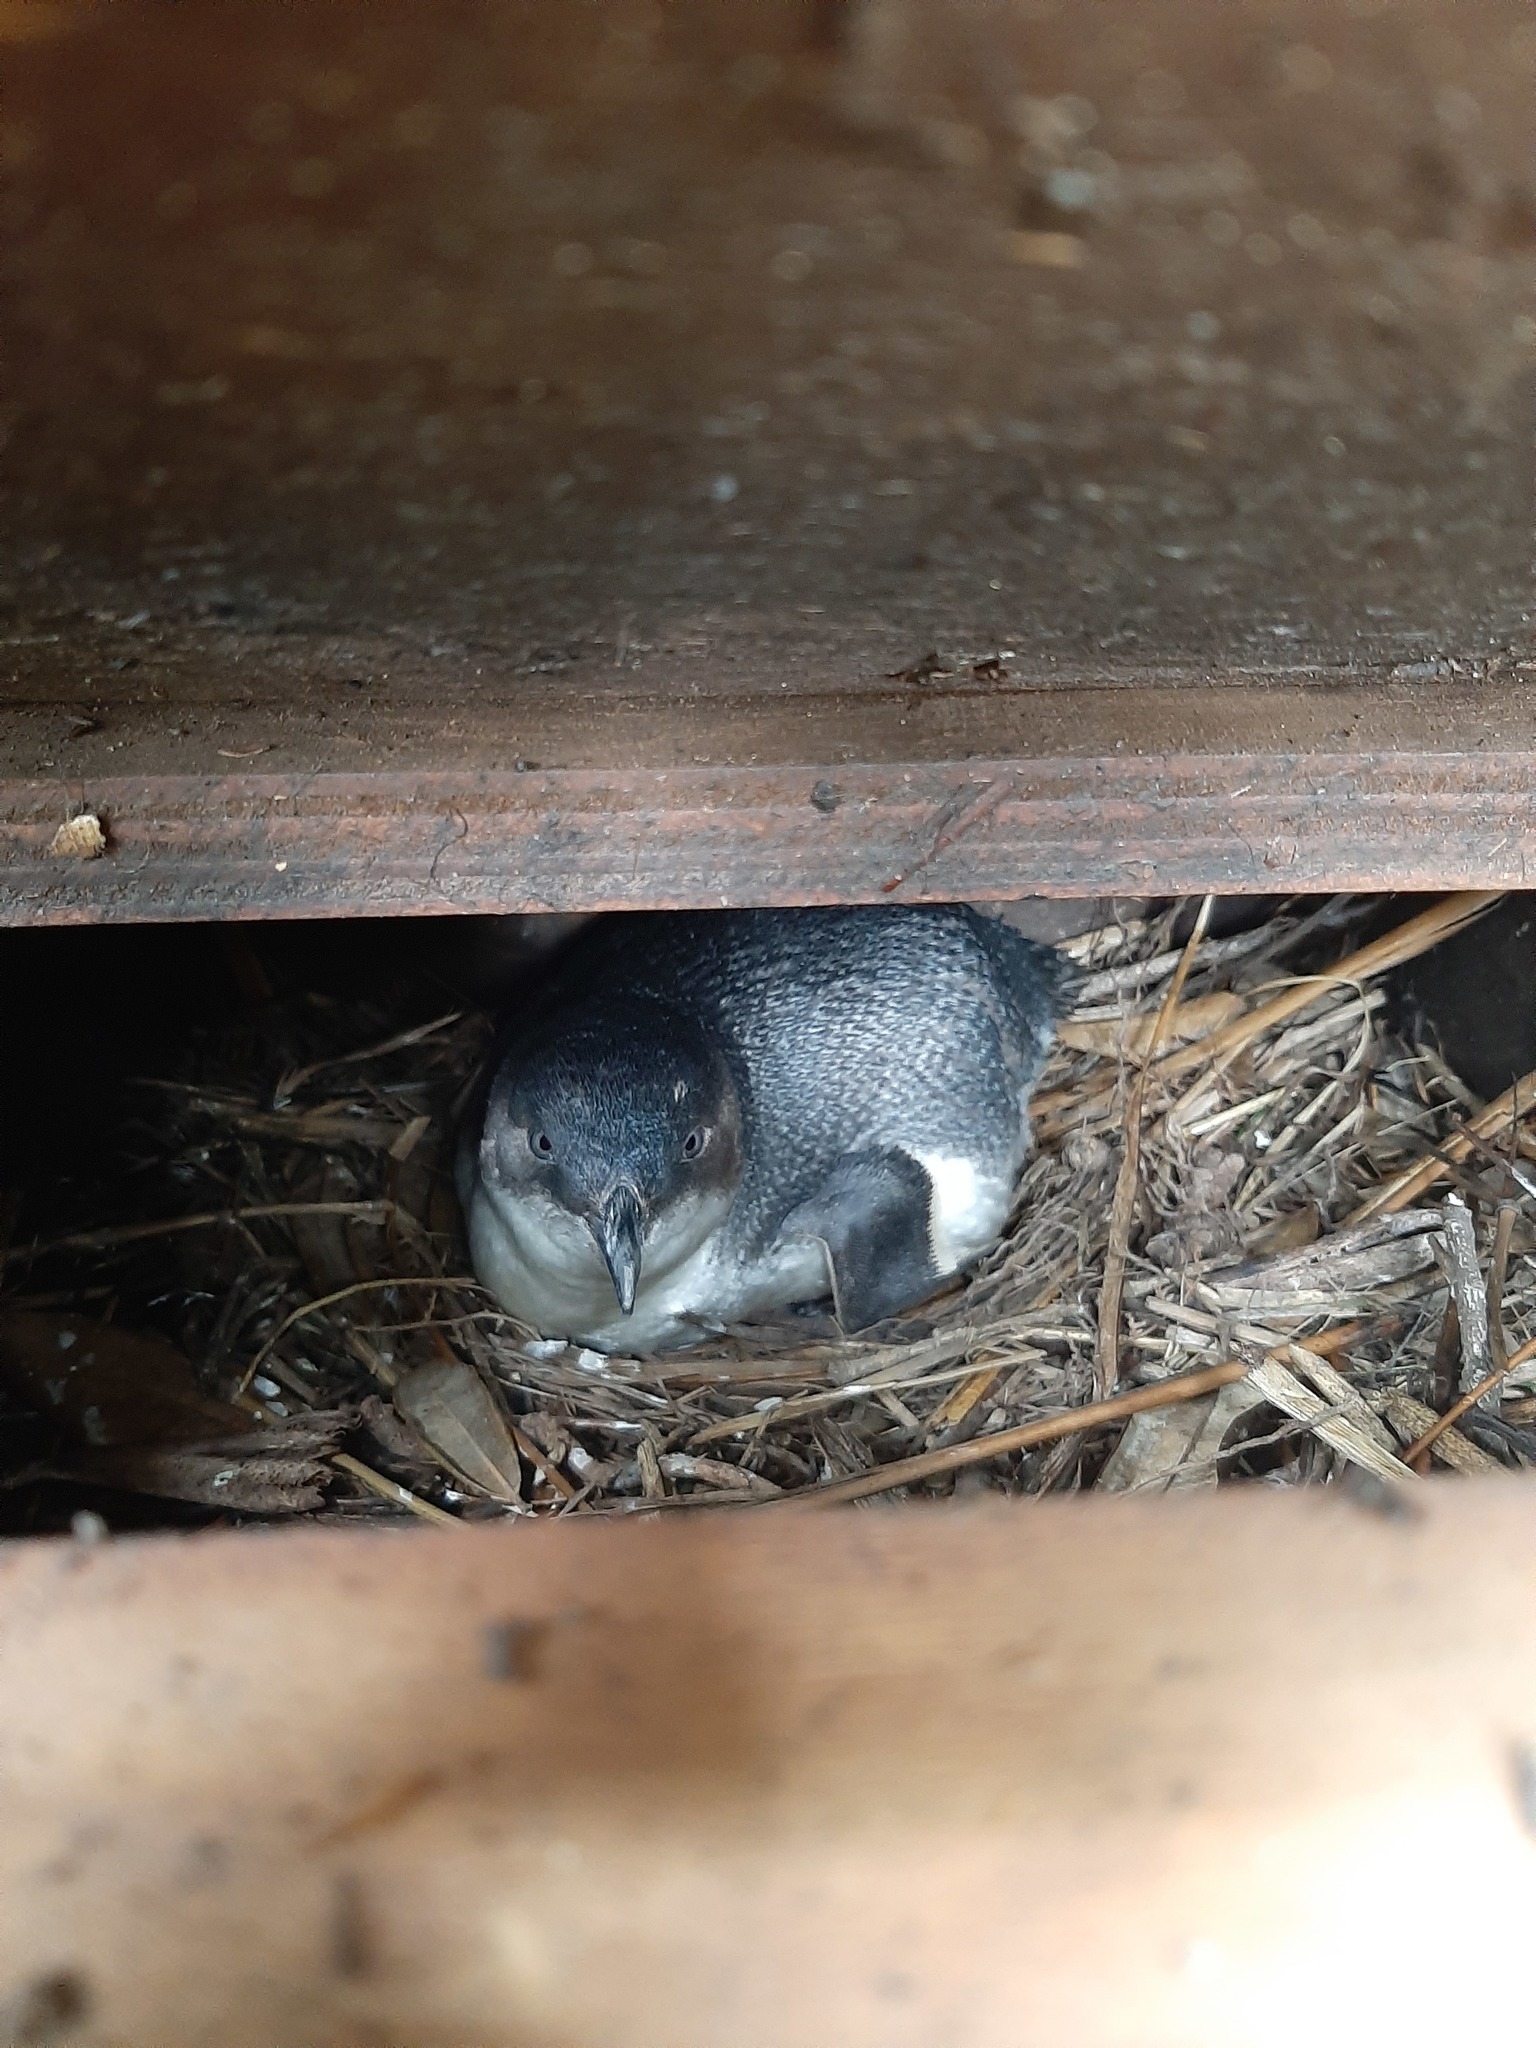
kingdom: Animalia
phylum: Chordata
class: Aves
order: Sphenisciformes
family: Spheniscidae
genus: Eudyptula
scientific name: Eudyptula minor
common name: Little penguin
